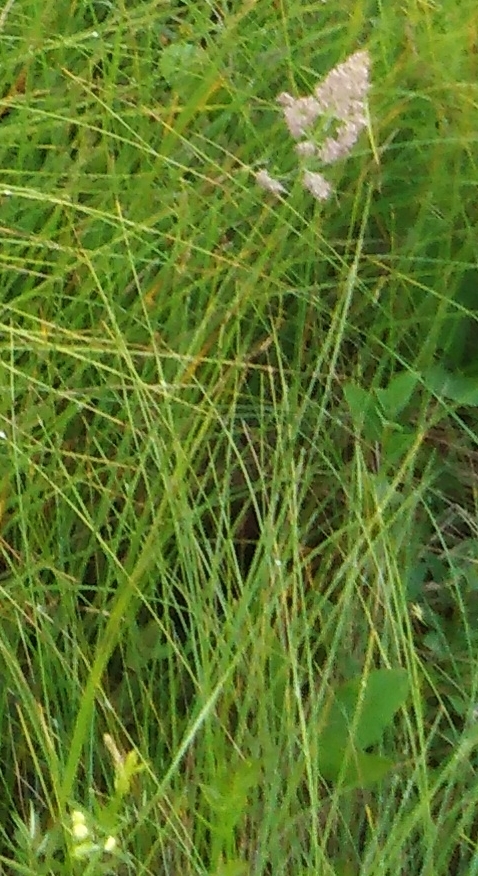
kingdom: Plantae
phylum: Tracheophyta
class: Liliopsida
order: Poales
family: Poaceae
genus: Dactylis
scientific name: Dactylis glomerata
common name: Orchardgrass
